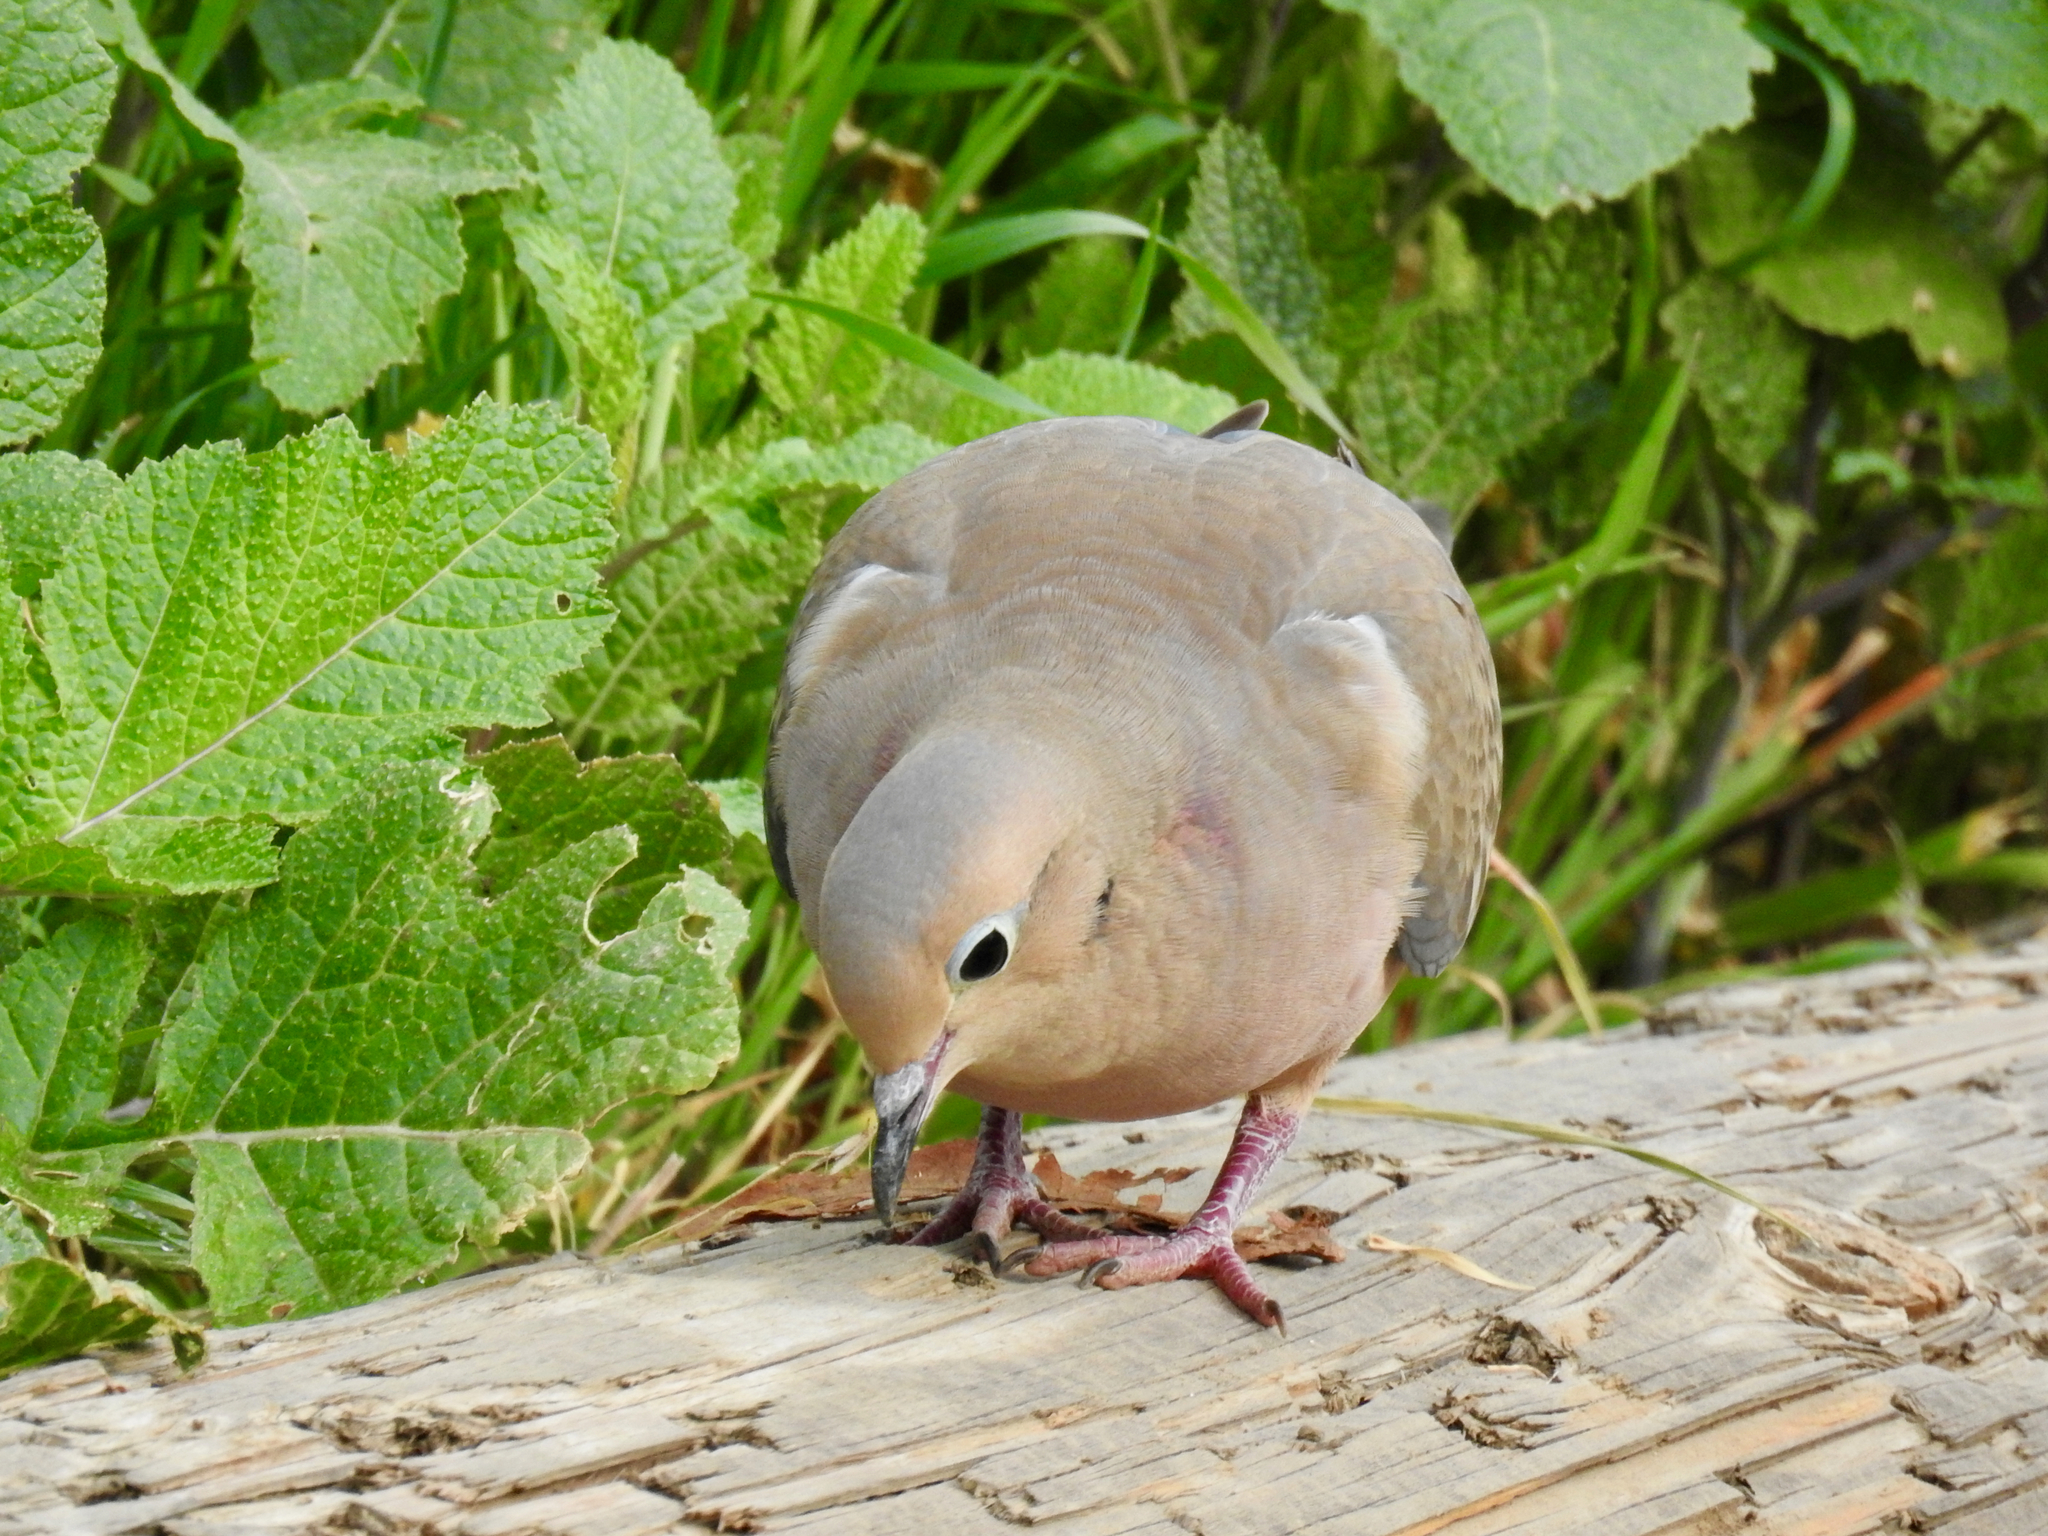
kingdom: Animalia
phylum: Chordata
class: Aves
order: Columbiformes
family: Columbidae
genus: Zenaida
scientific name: Zenaida macroura
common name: Mourning dove
